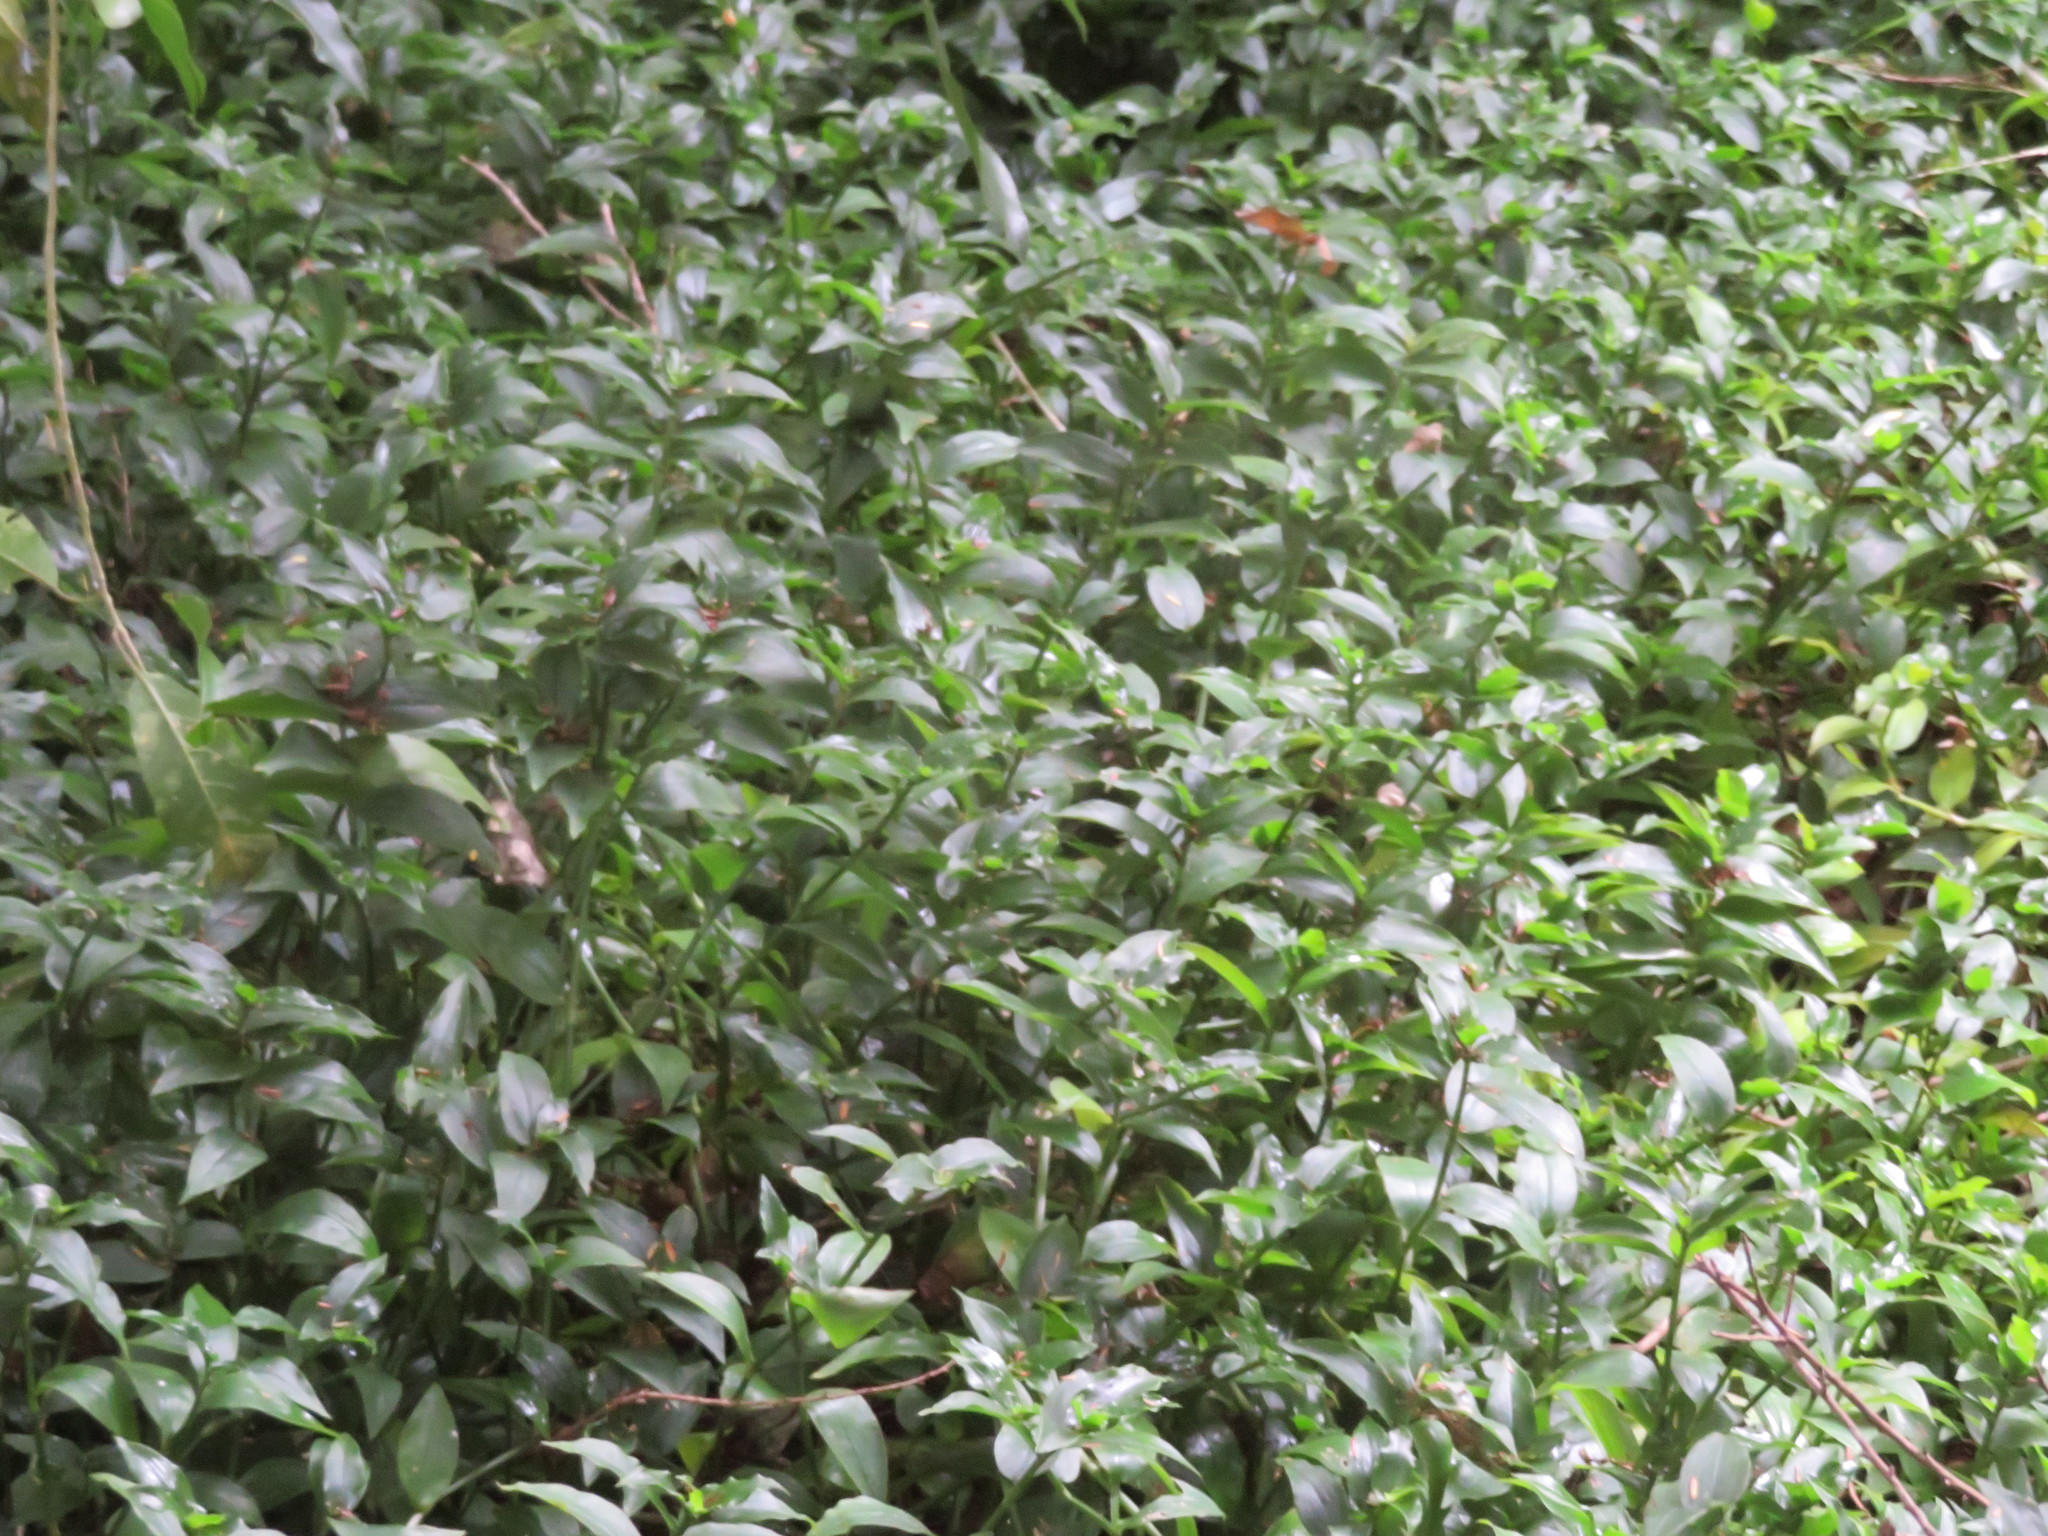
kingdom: Plantae
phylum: Tracheophyta
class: Liliopsida
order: Commelinales
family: Commelinaceae
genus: Tradescantia
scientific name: Tradescantia fluminensis
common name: Wandering-jew
